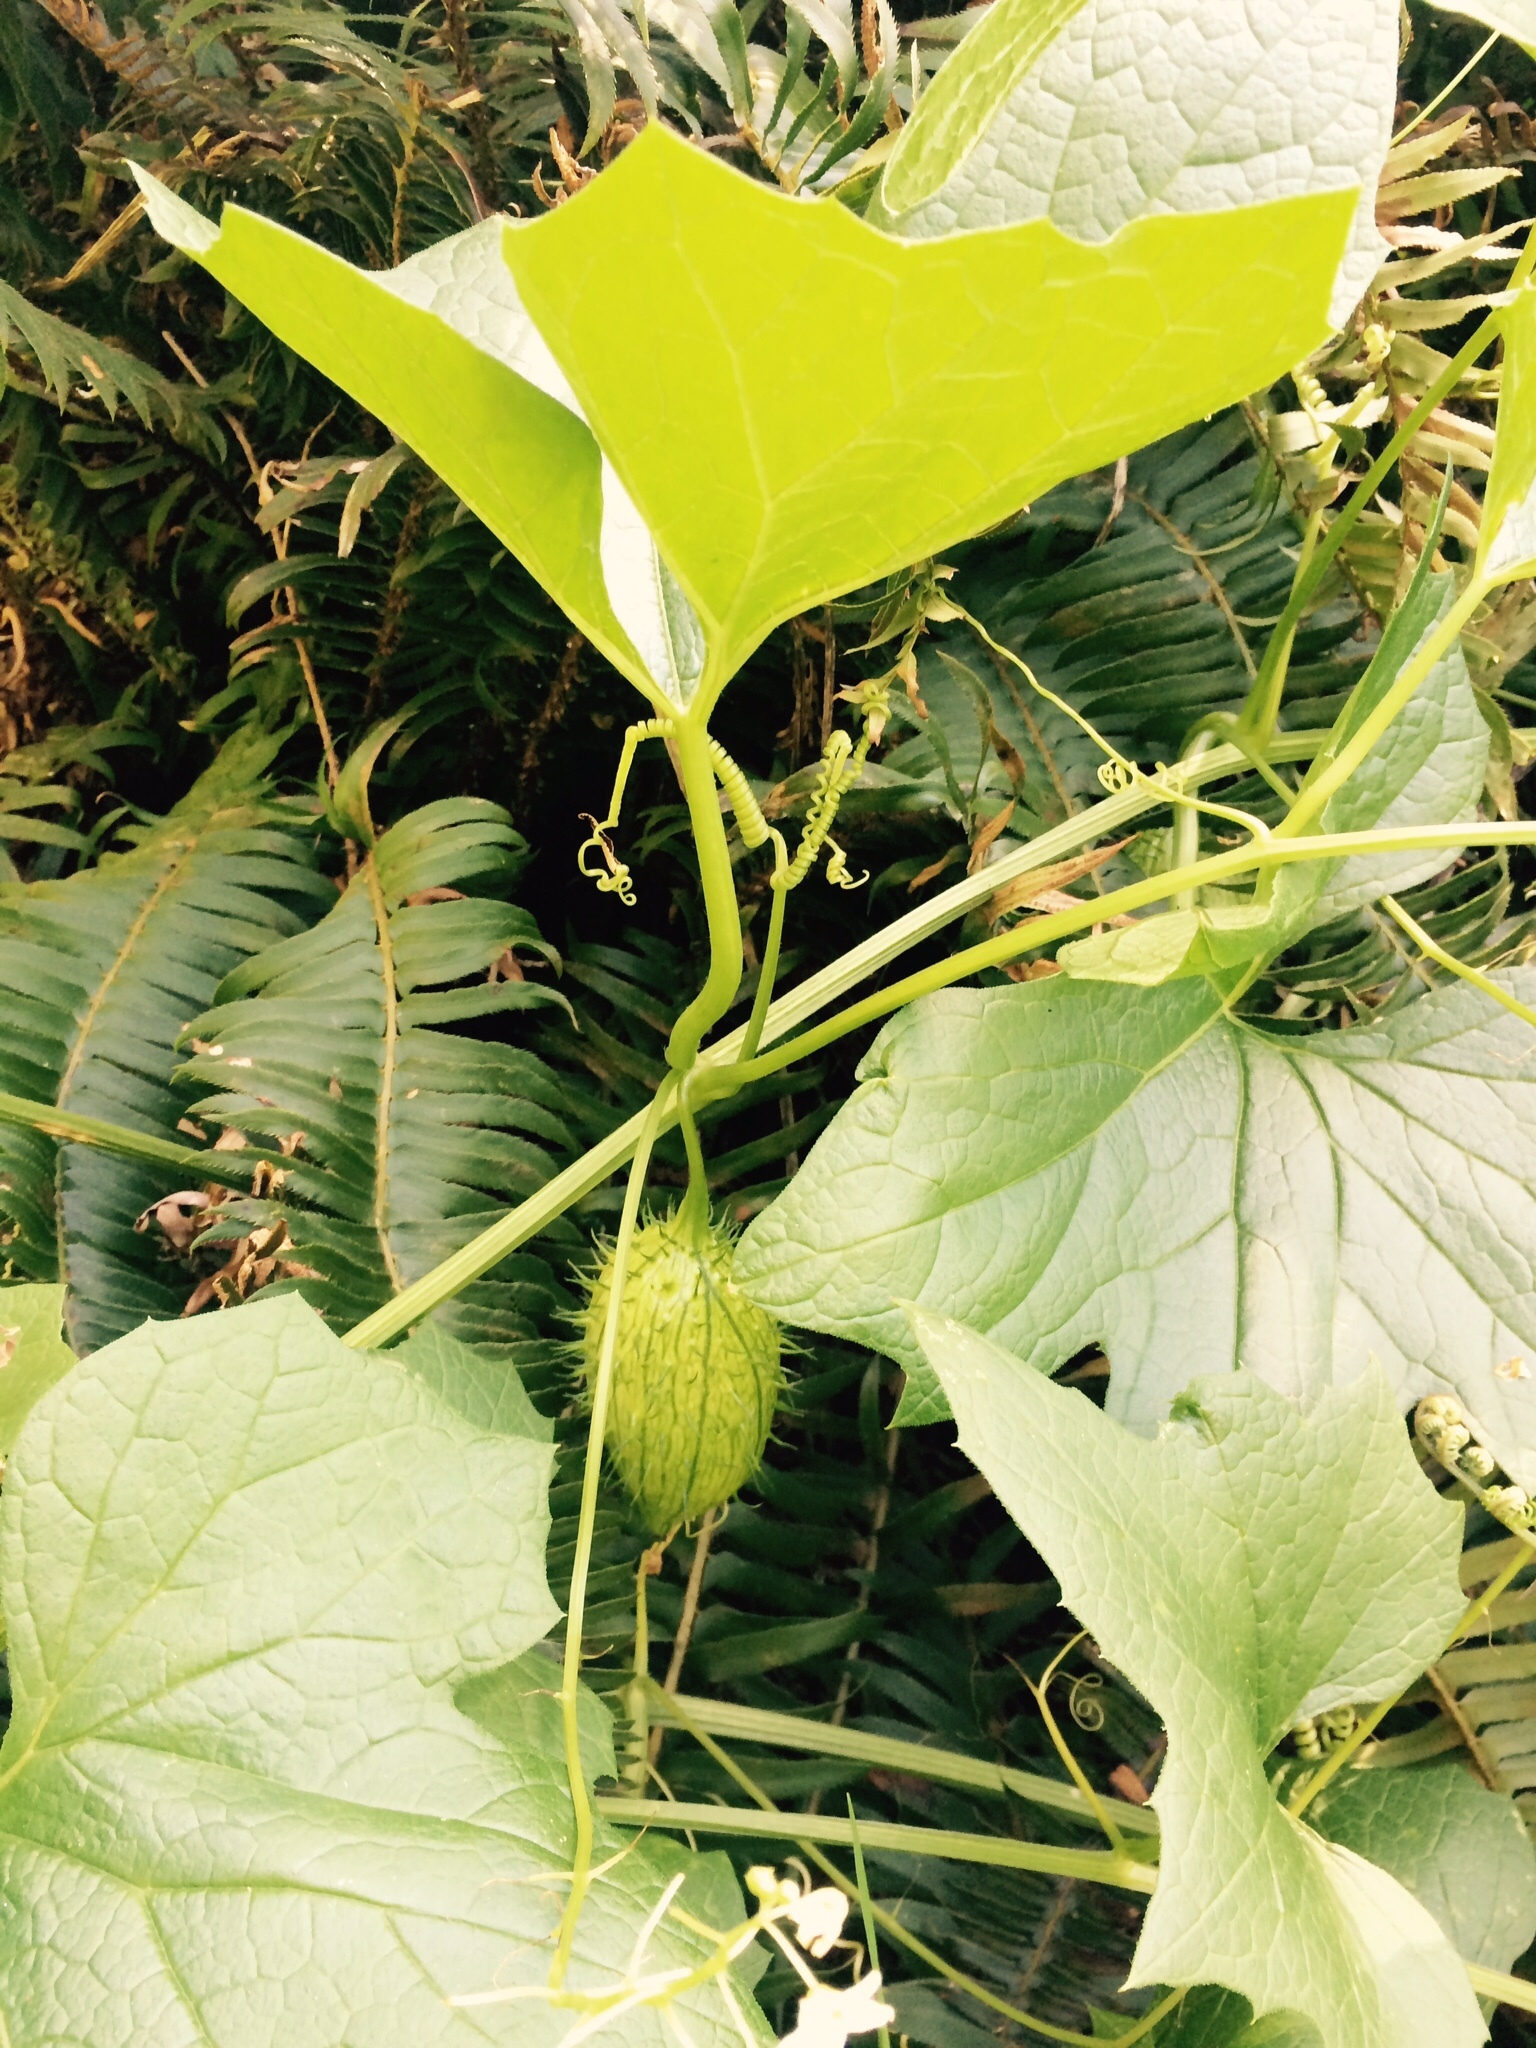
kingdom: Plantae
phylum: Tracheophyta
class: Magnoliopsida
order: Cucurbitales
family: Cucurbitaceae
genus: Marah
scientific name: Marah oregana
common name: Coastal manroot
